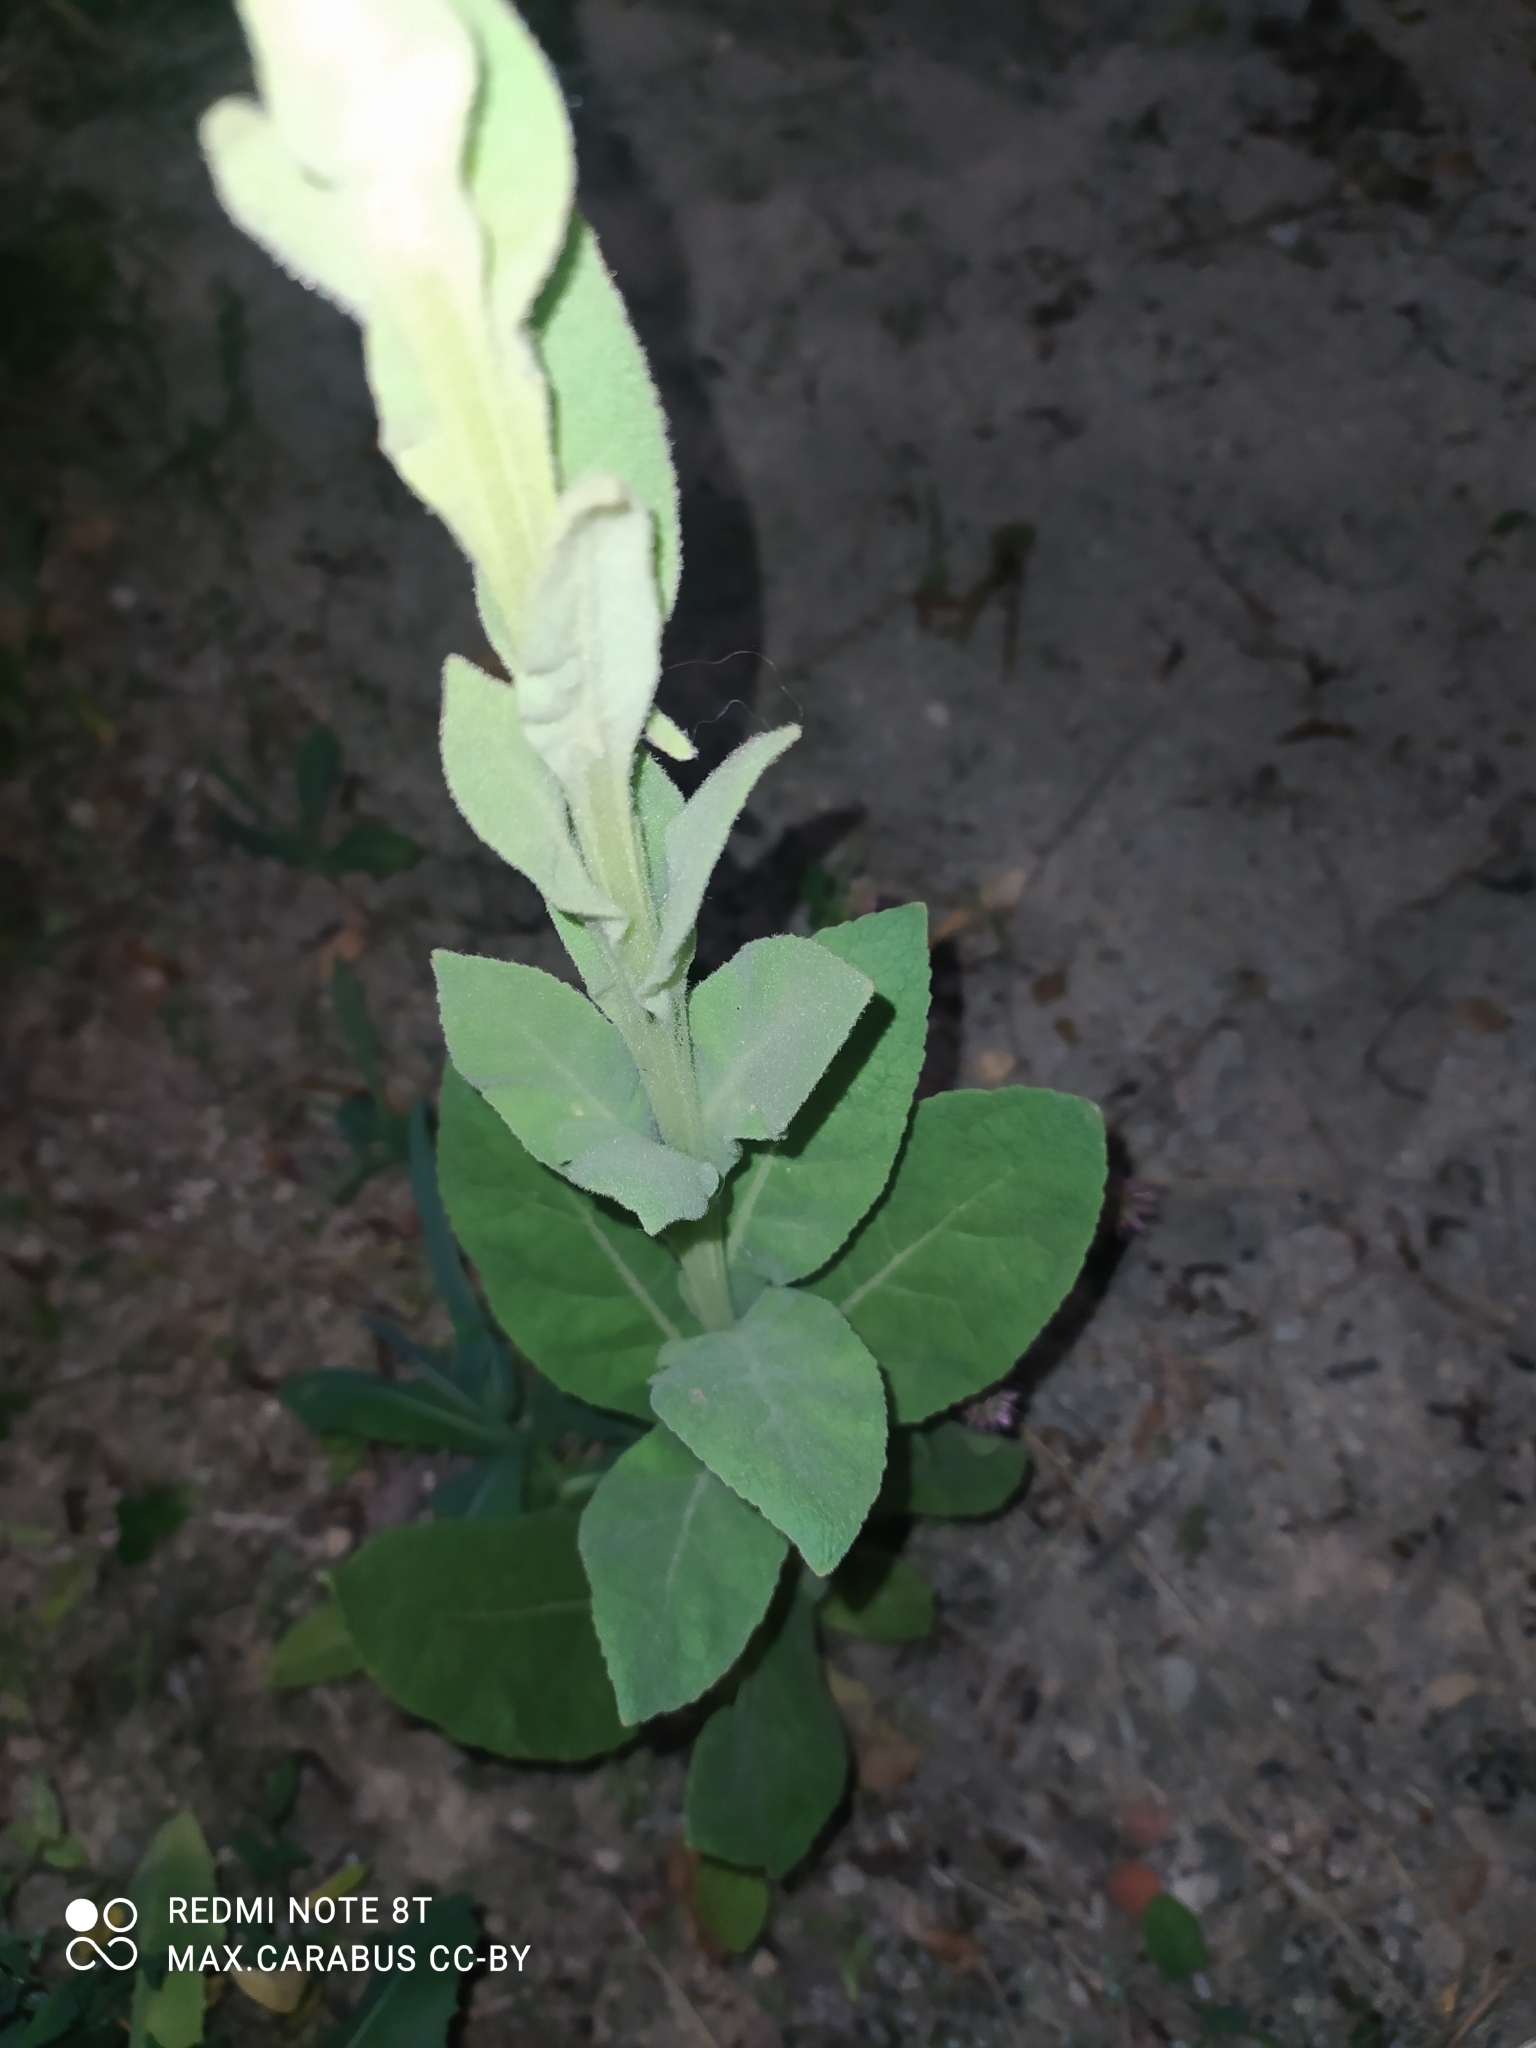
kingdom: Plantae
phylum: Tracheophyta
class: Magnoliopsida
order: Lamiales
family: Scrophulariaceae
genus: Verbascum
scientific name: Verbascum thapsus
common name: Common mullein
